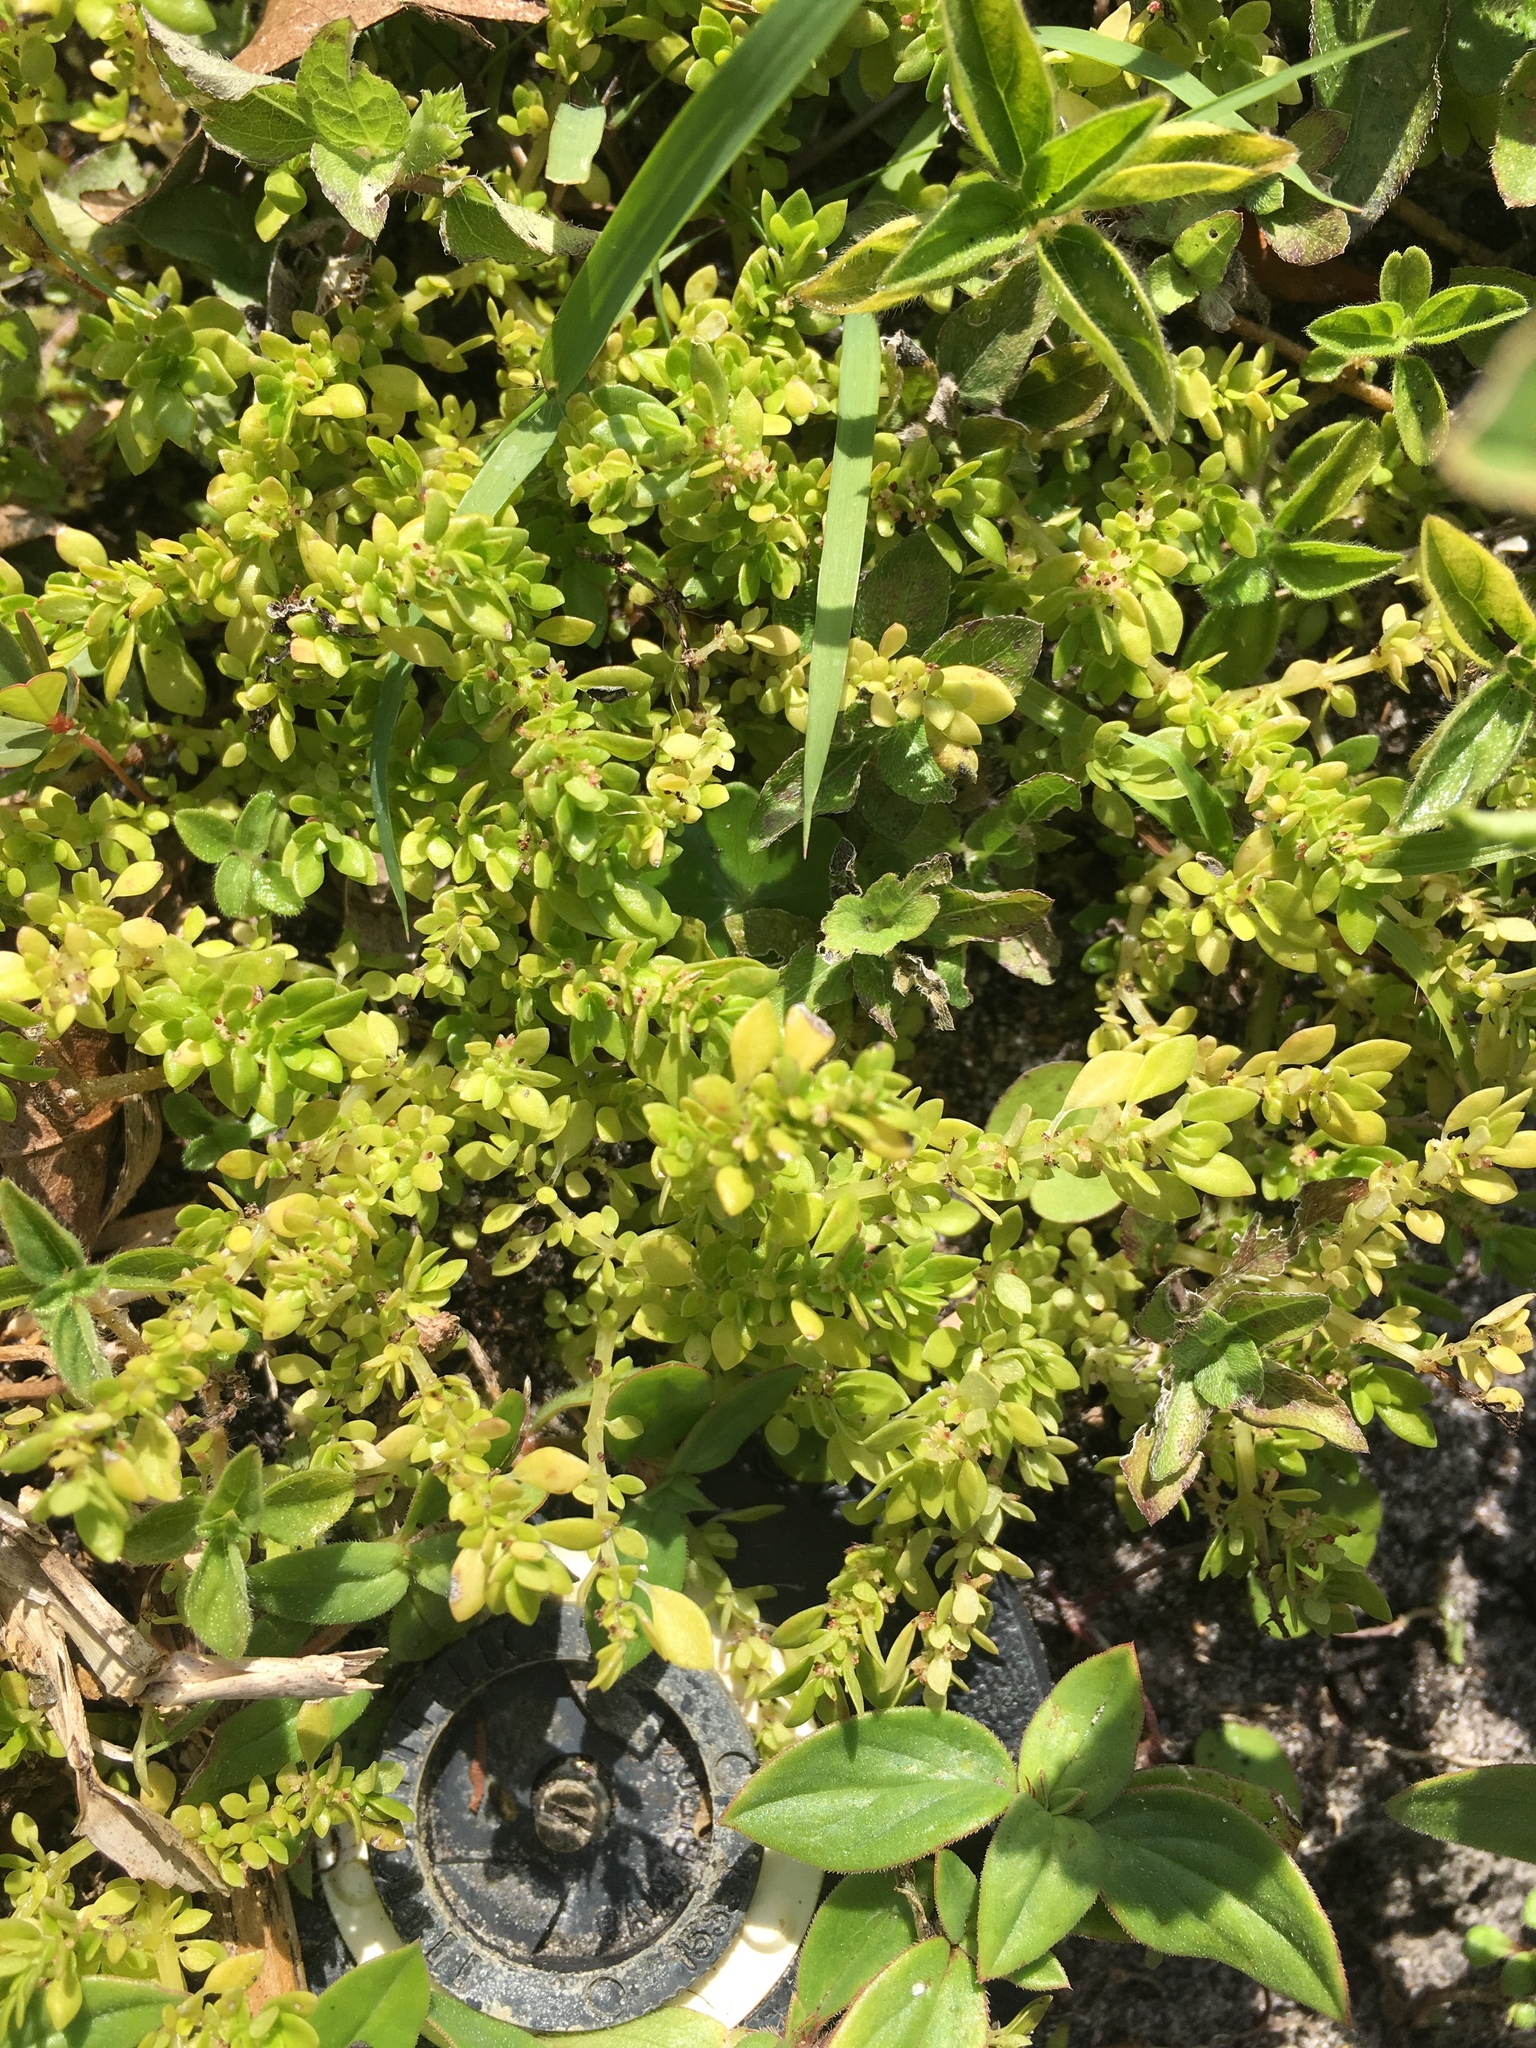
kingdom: Plantae
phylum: Tracheophyta
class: Magnoliopsida
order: Rosales
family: Urticaceae
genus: Pilea
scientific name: Pilea microphylla
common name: Artillery-plant
